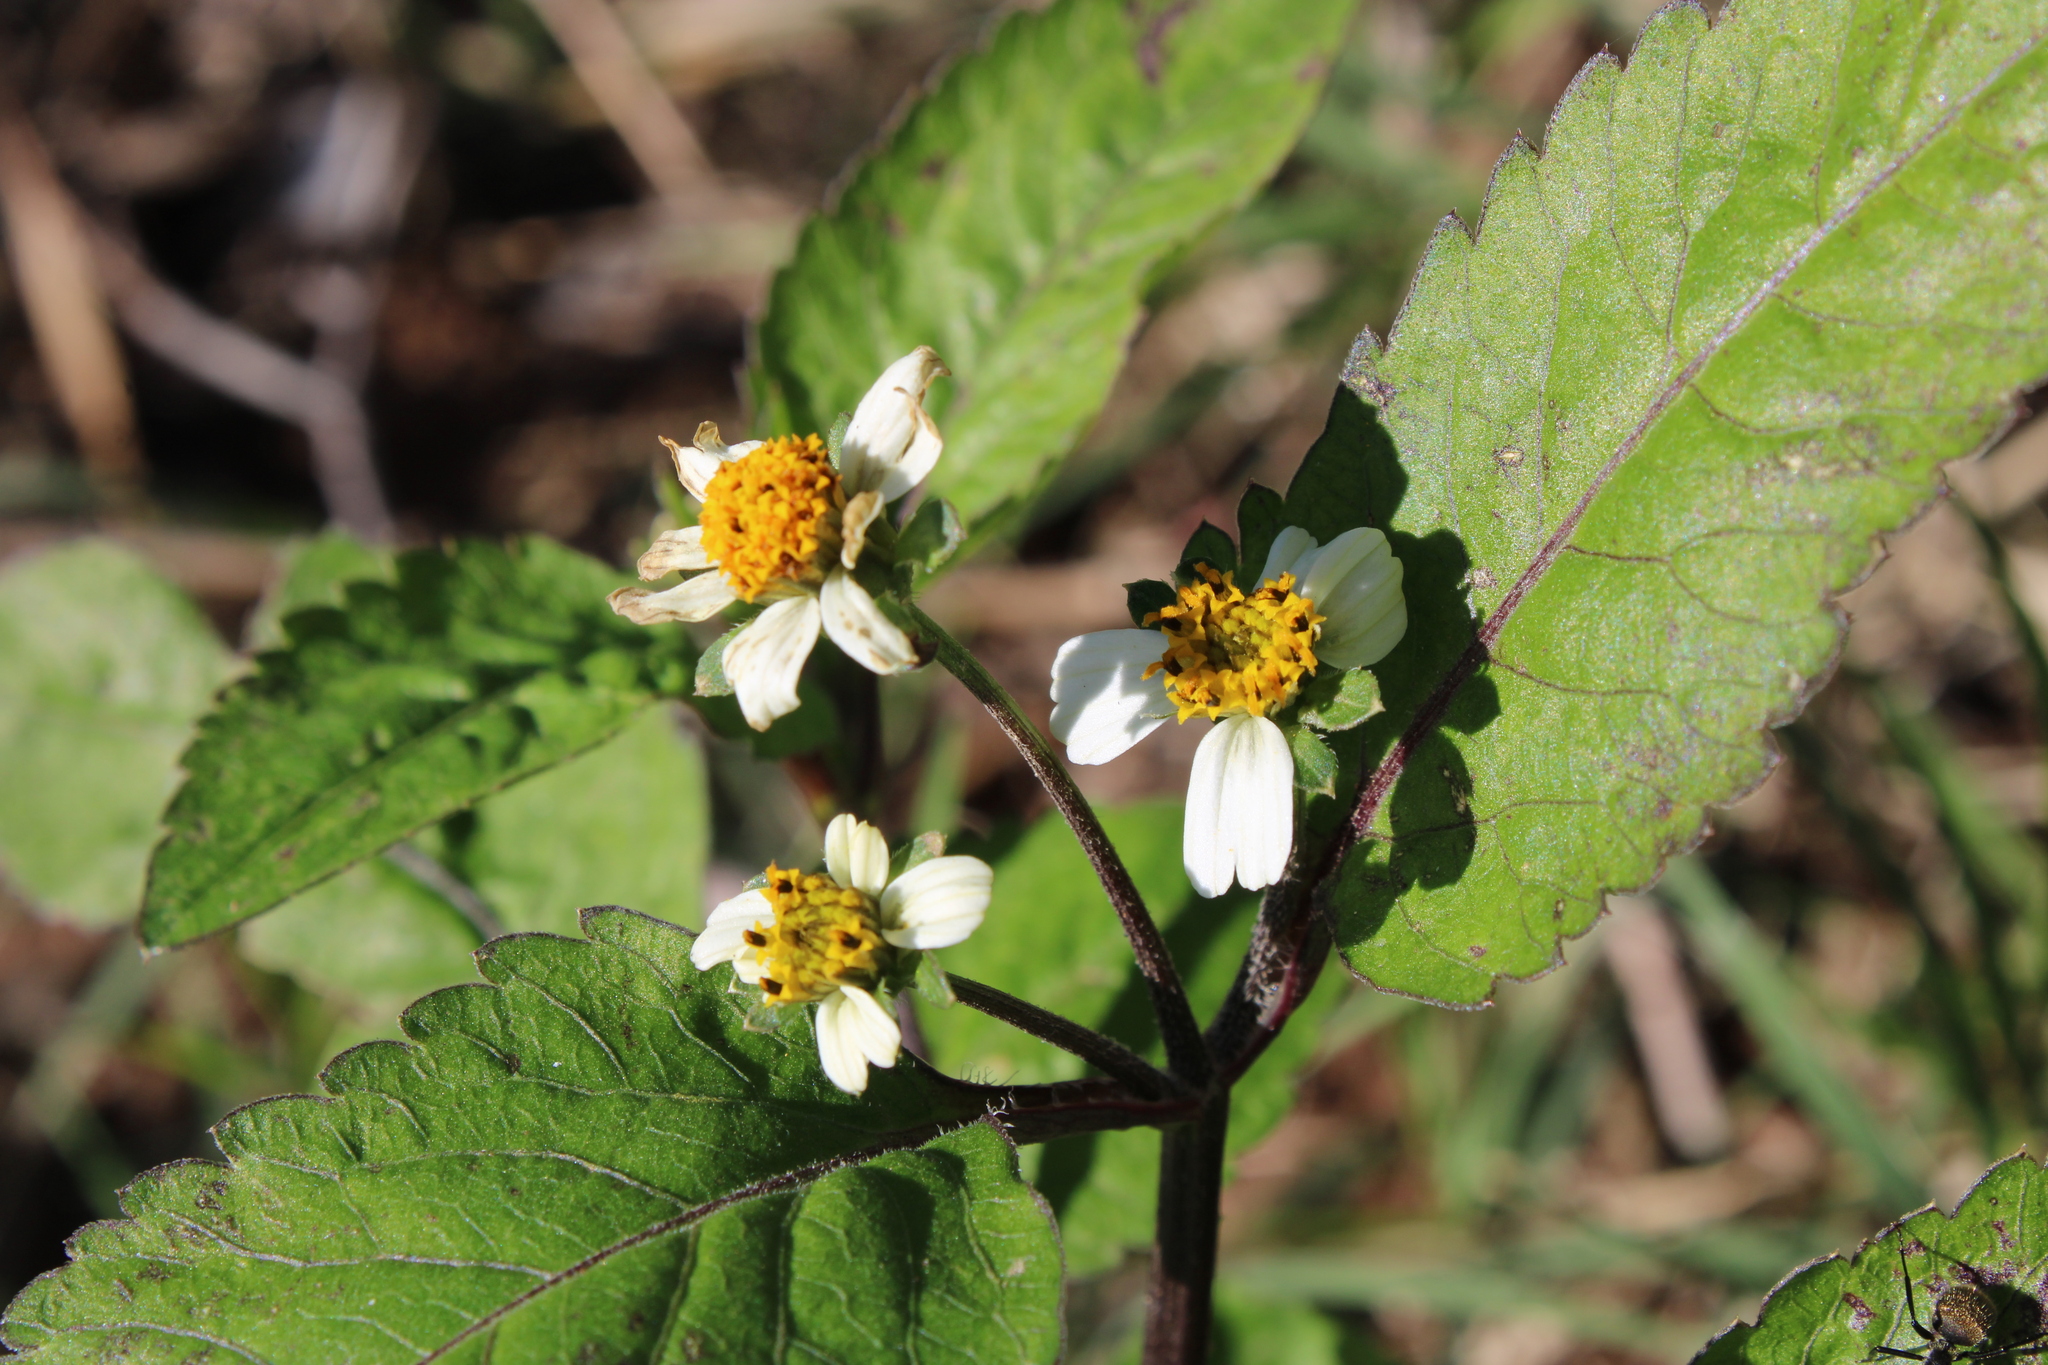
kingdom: Plantae
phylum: Tracheophyta
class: Magnoliopsida
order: Asterales
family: Asteraceae
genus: Bidens
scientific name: Bidens pilosa
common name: Black-jack
